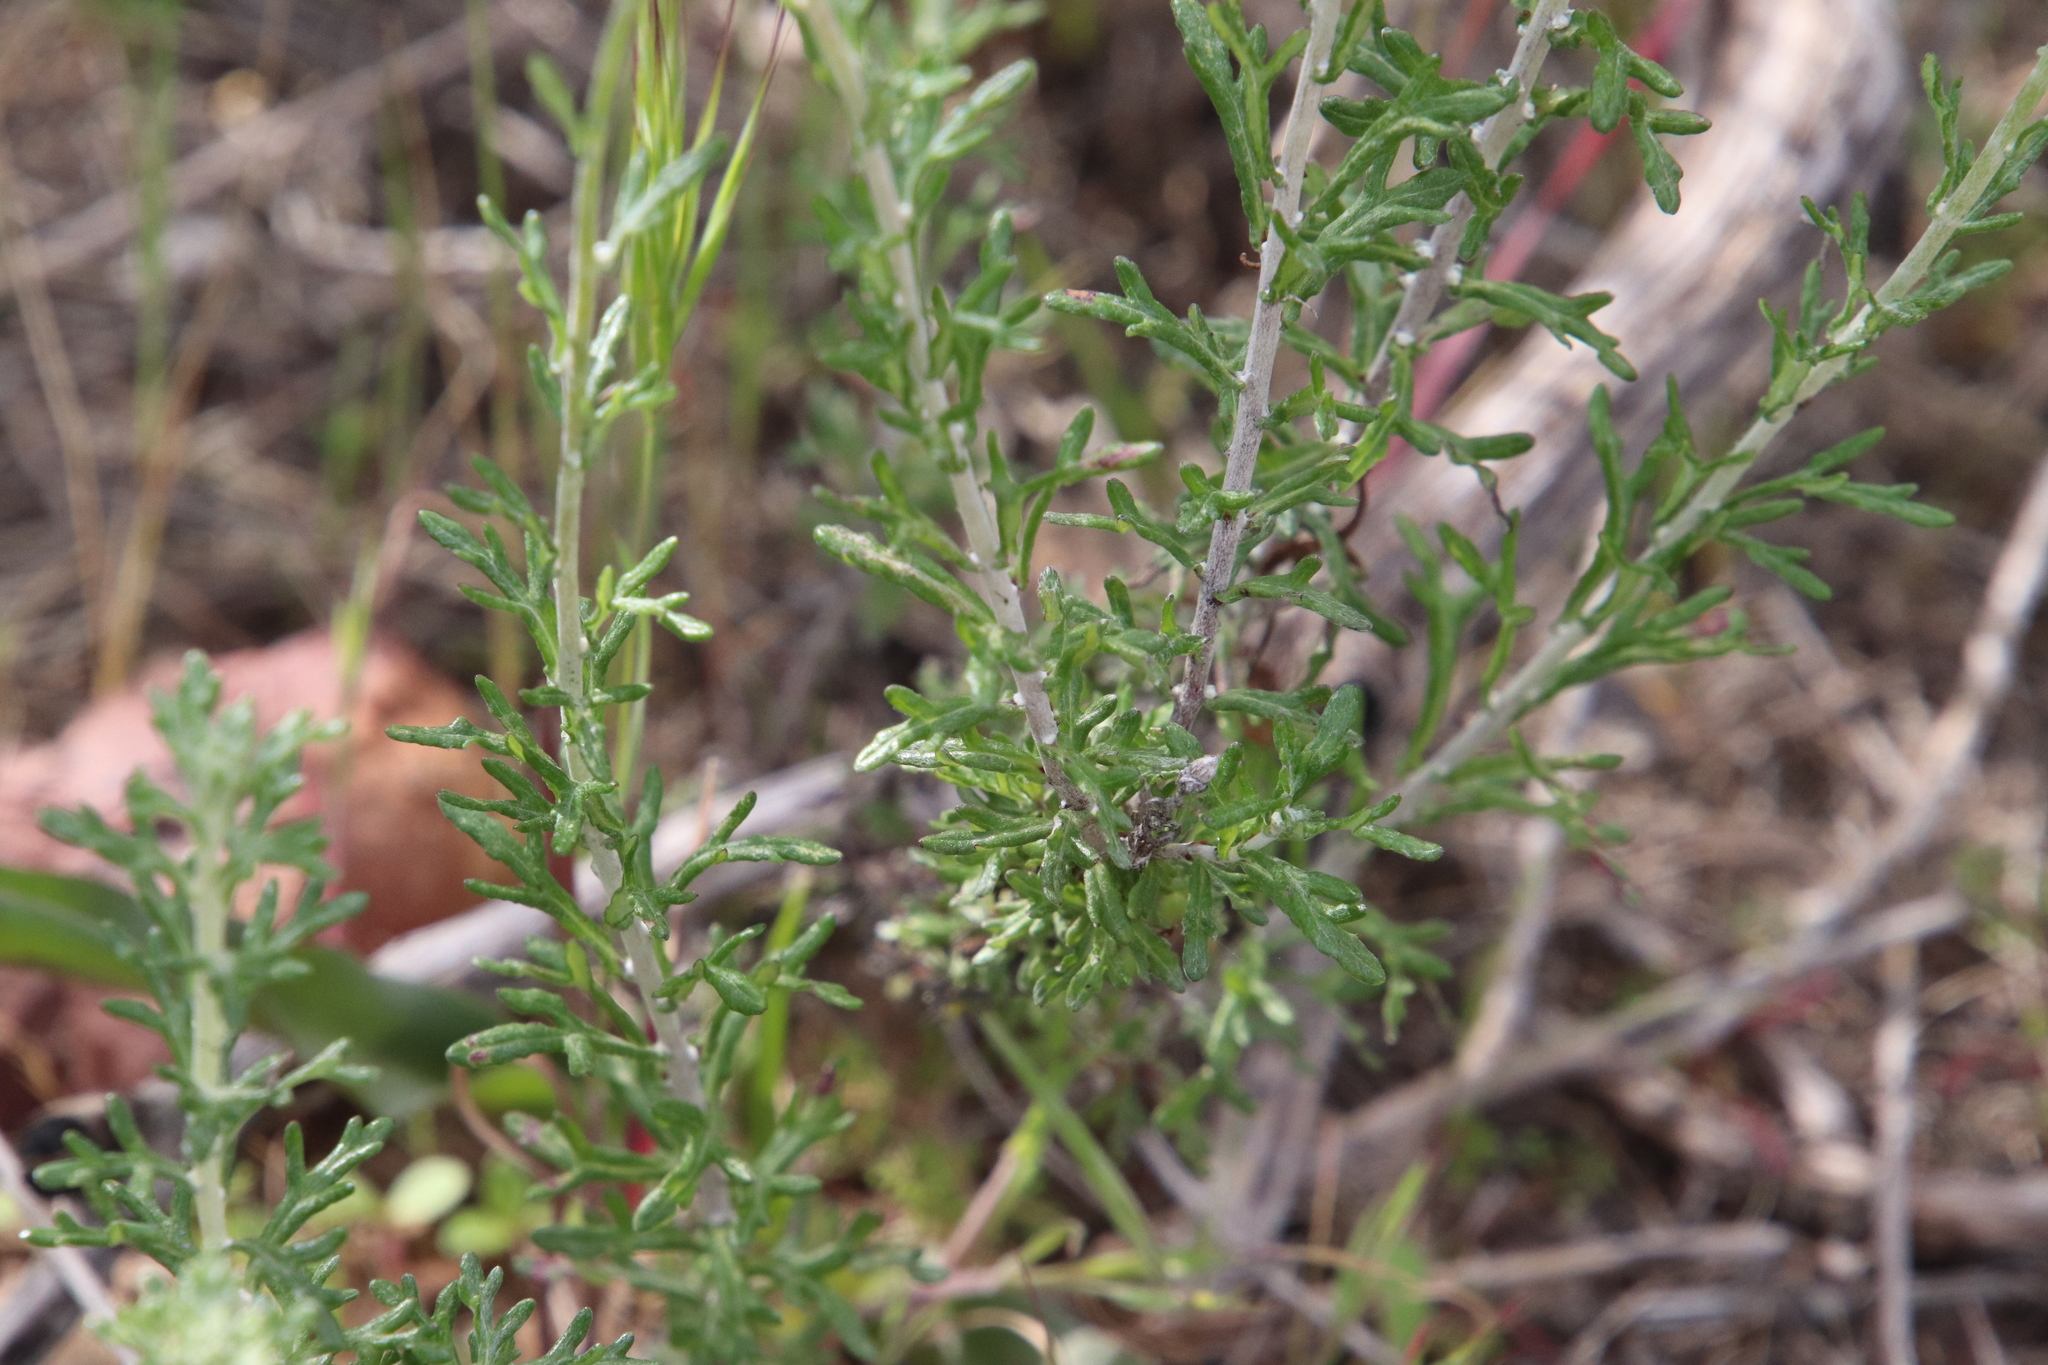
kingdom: Plantae
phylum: Tracheophyta
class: Magnoliopsida
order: Asterales
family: Asteraceae
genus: Eriophyllum
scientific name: Eriophyllum confertiflorum
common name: Golden-yarrow
